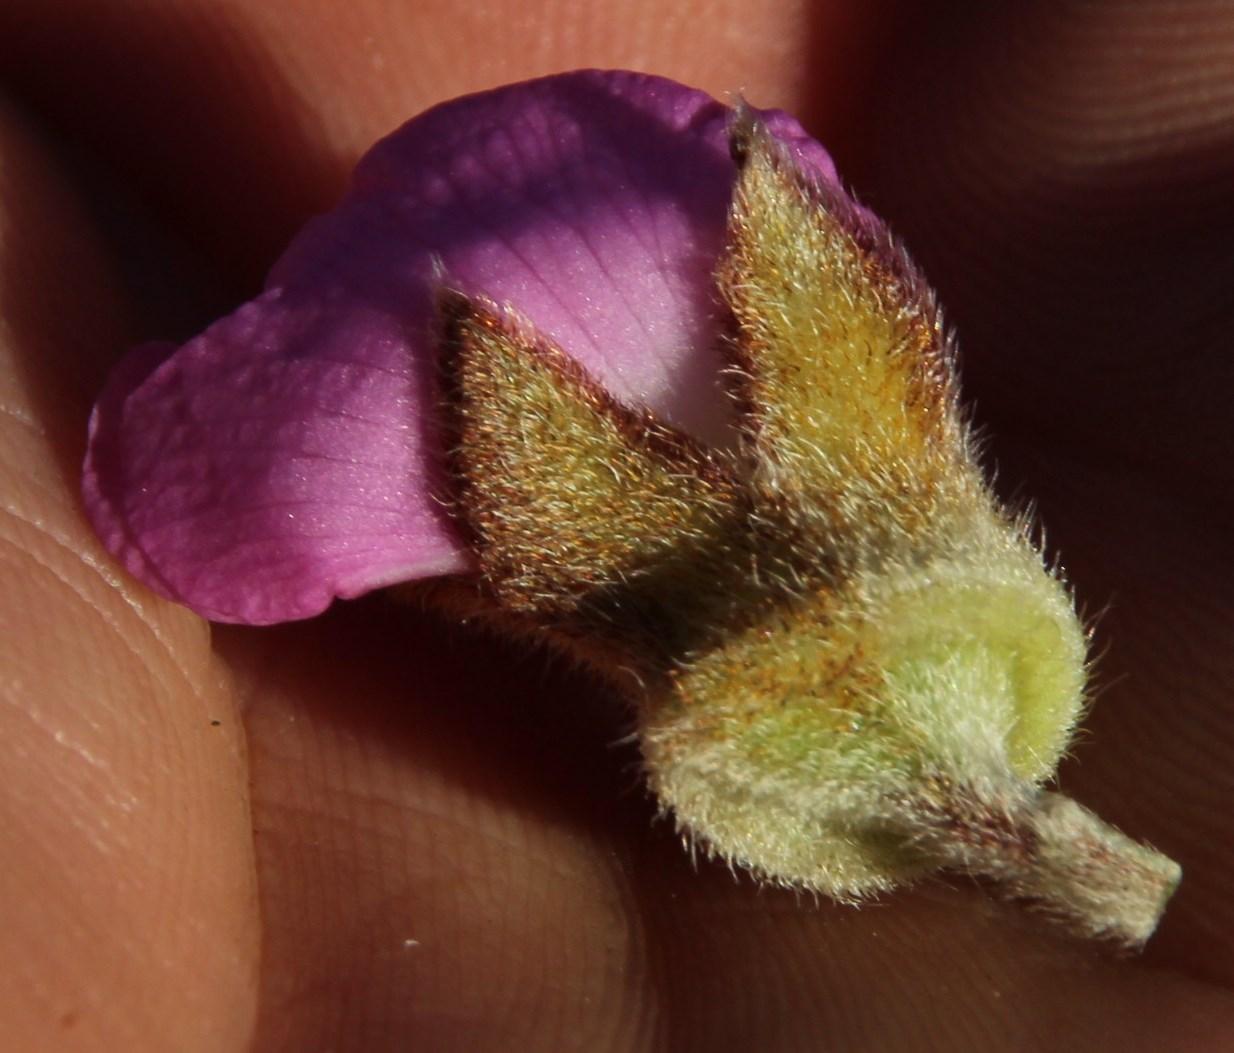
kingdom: Plantae
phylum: Tracheophyta
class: Magnoliopsida
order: Fabales
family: Fabaceae
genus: Podalyria
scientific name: Podalyria variabilis
